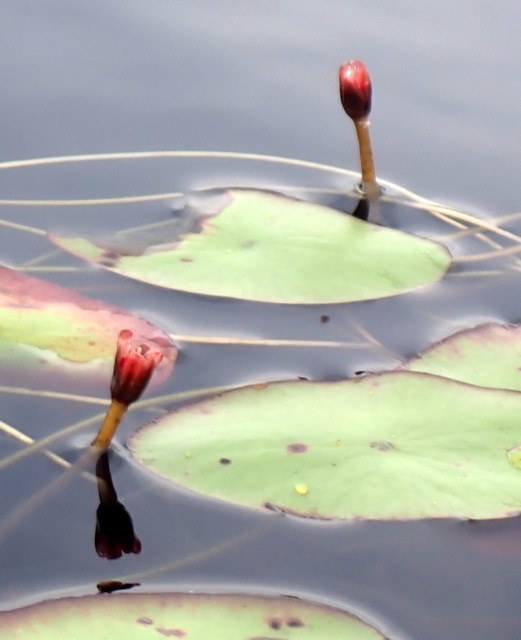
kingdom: Plantae
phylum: Tracheophyta
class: Magnoliopsida
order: Nymphaeales
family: Cabombaceae
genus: Brasenia
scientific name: Brasenia schreberi
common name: Water-shield
